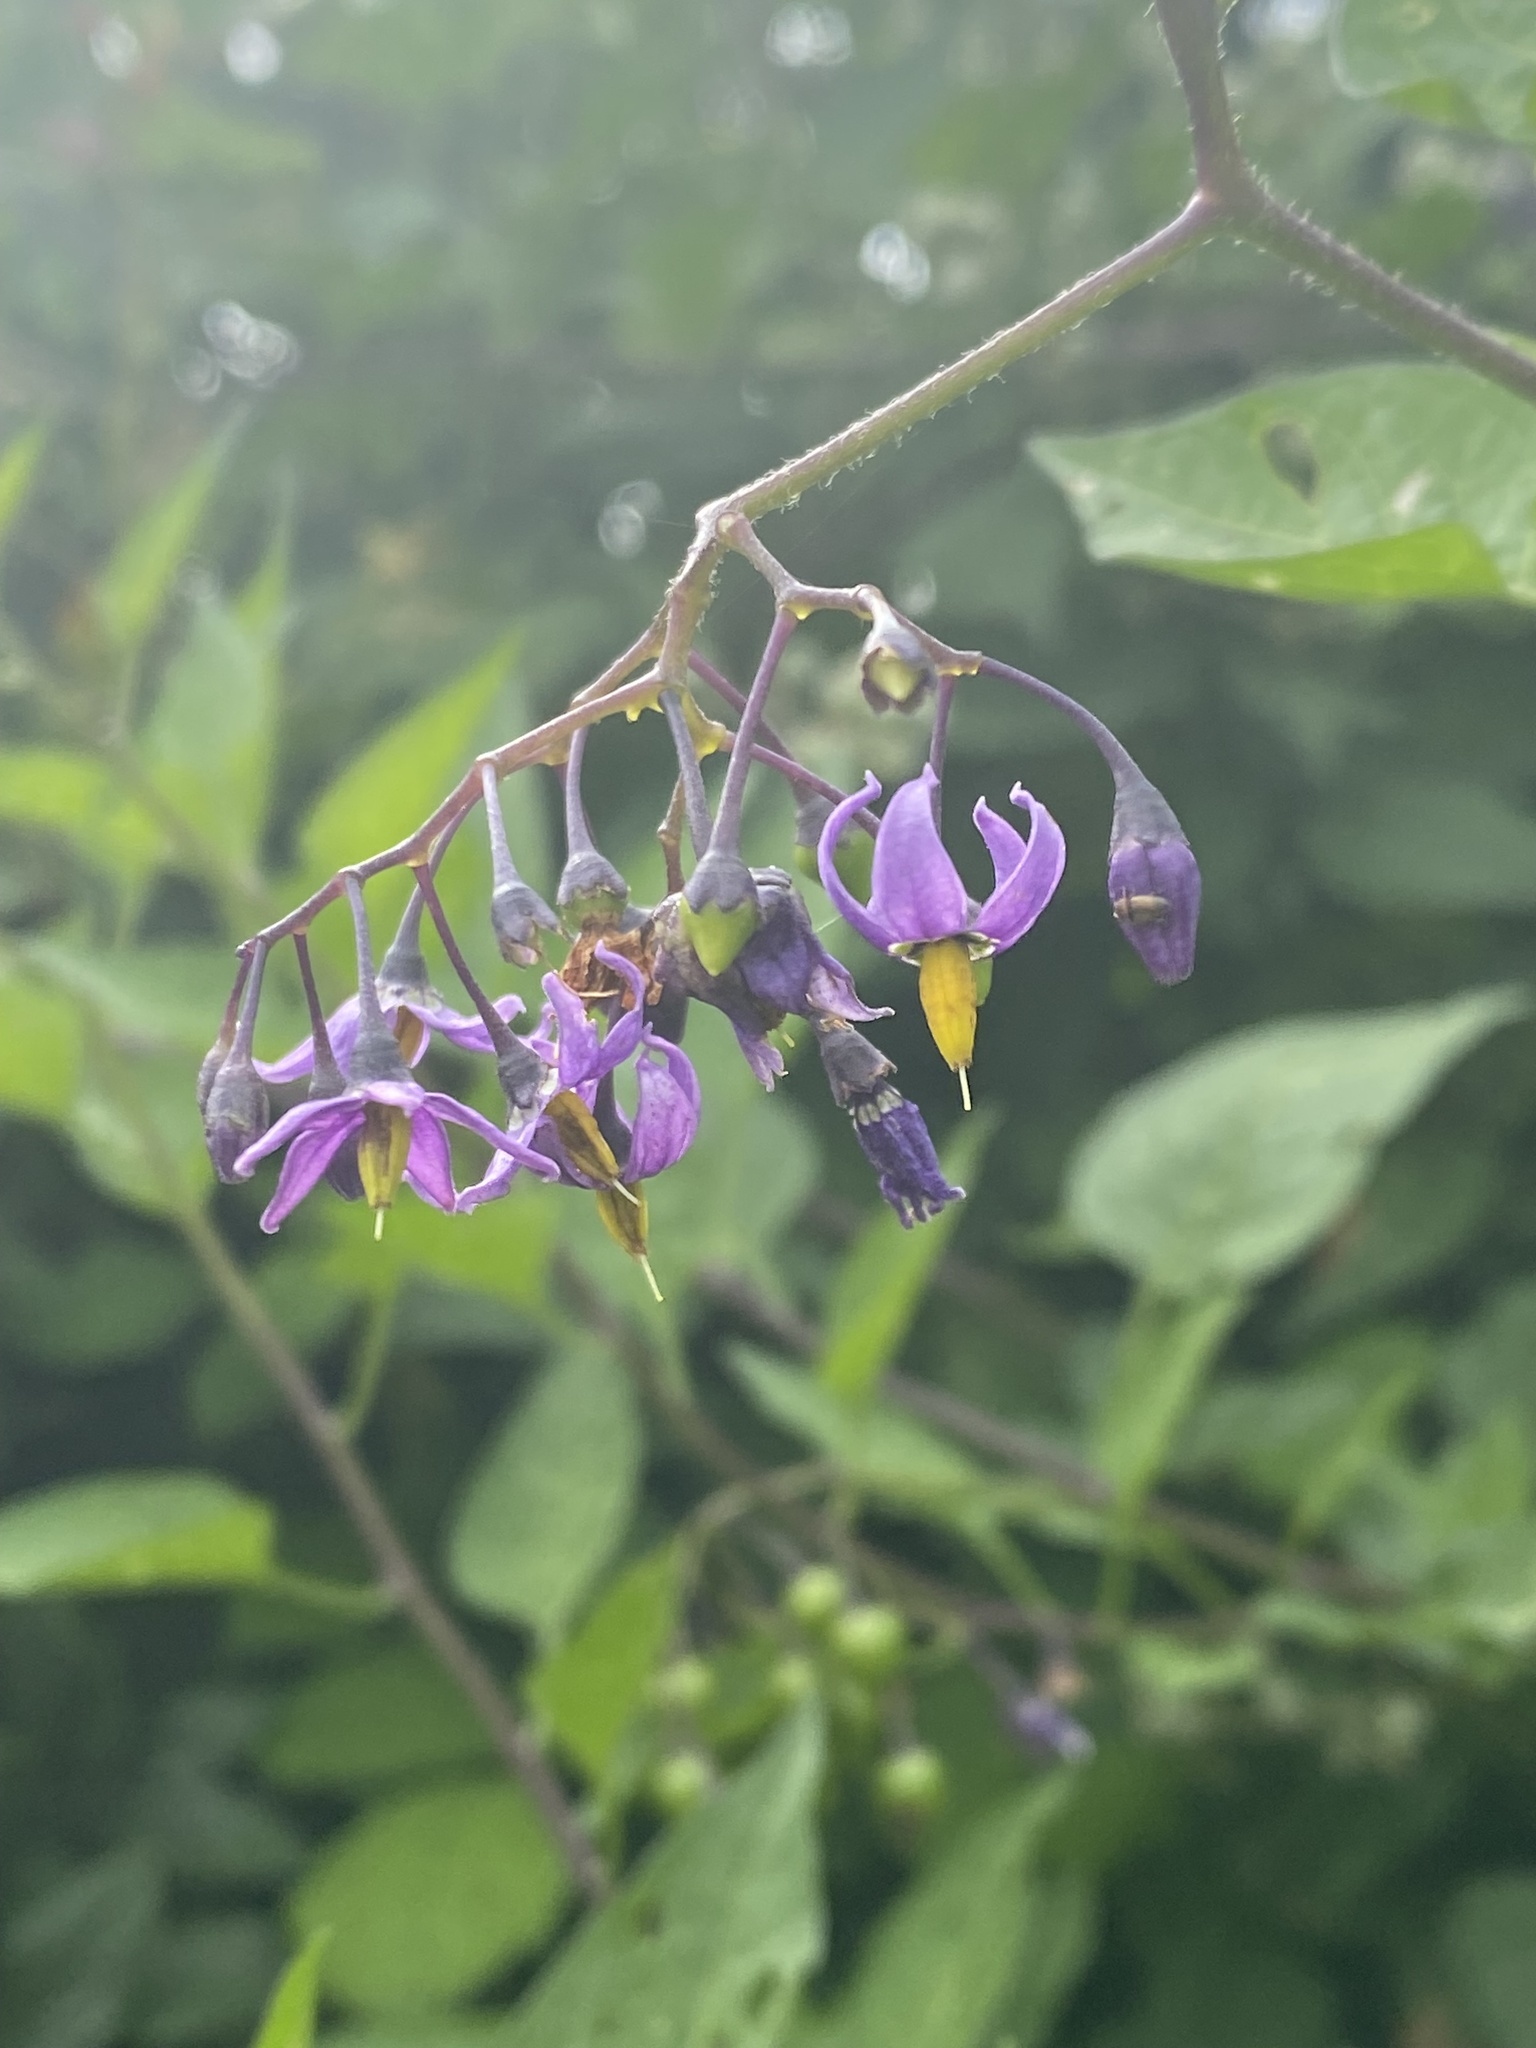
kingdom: Plantae
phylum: Tracheophyta
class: Magnoliopsida
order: Solanales
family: Solanaceae
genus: Solanum
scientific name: Solanum dulcamara
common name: Climbing nightshade
